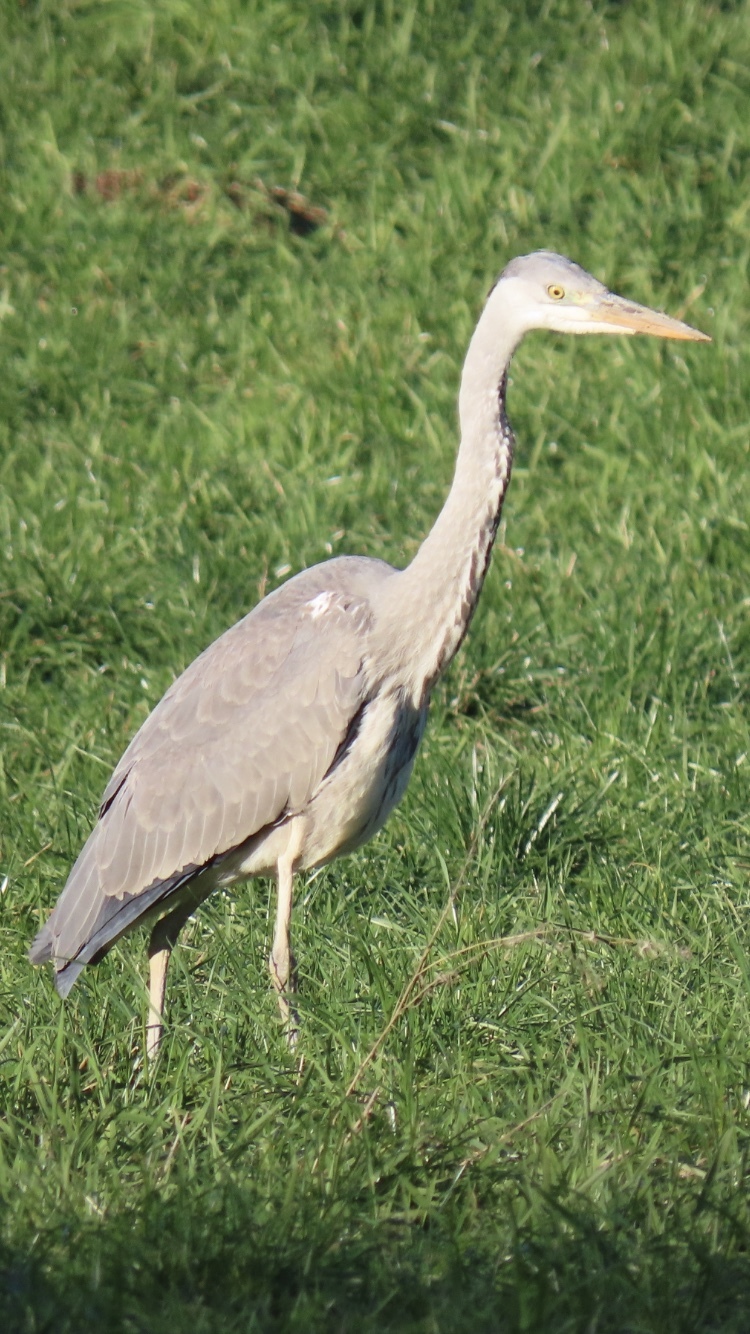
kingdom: Animalia
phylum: Chordata
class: Aves
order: Pelecaniformes
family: Ardeidae
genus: Ardea
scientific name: Ardea cinerea
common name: Grey heron
